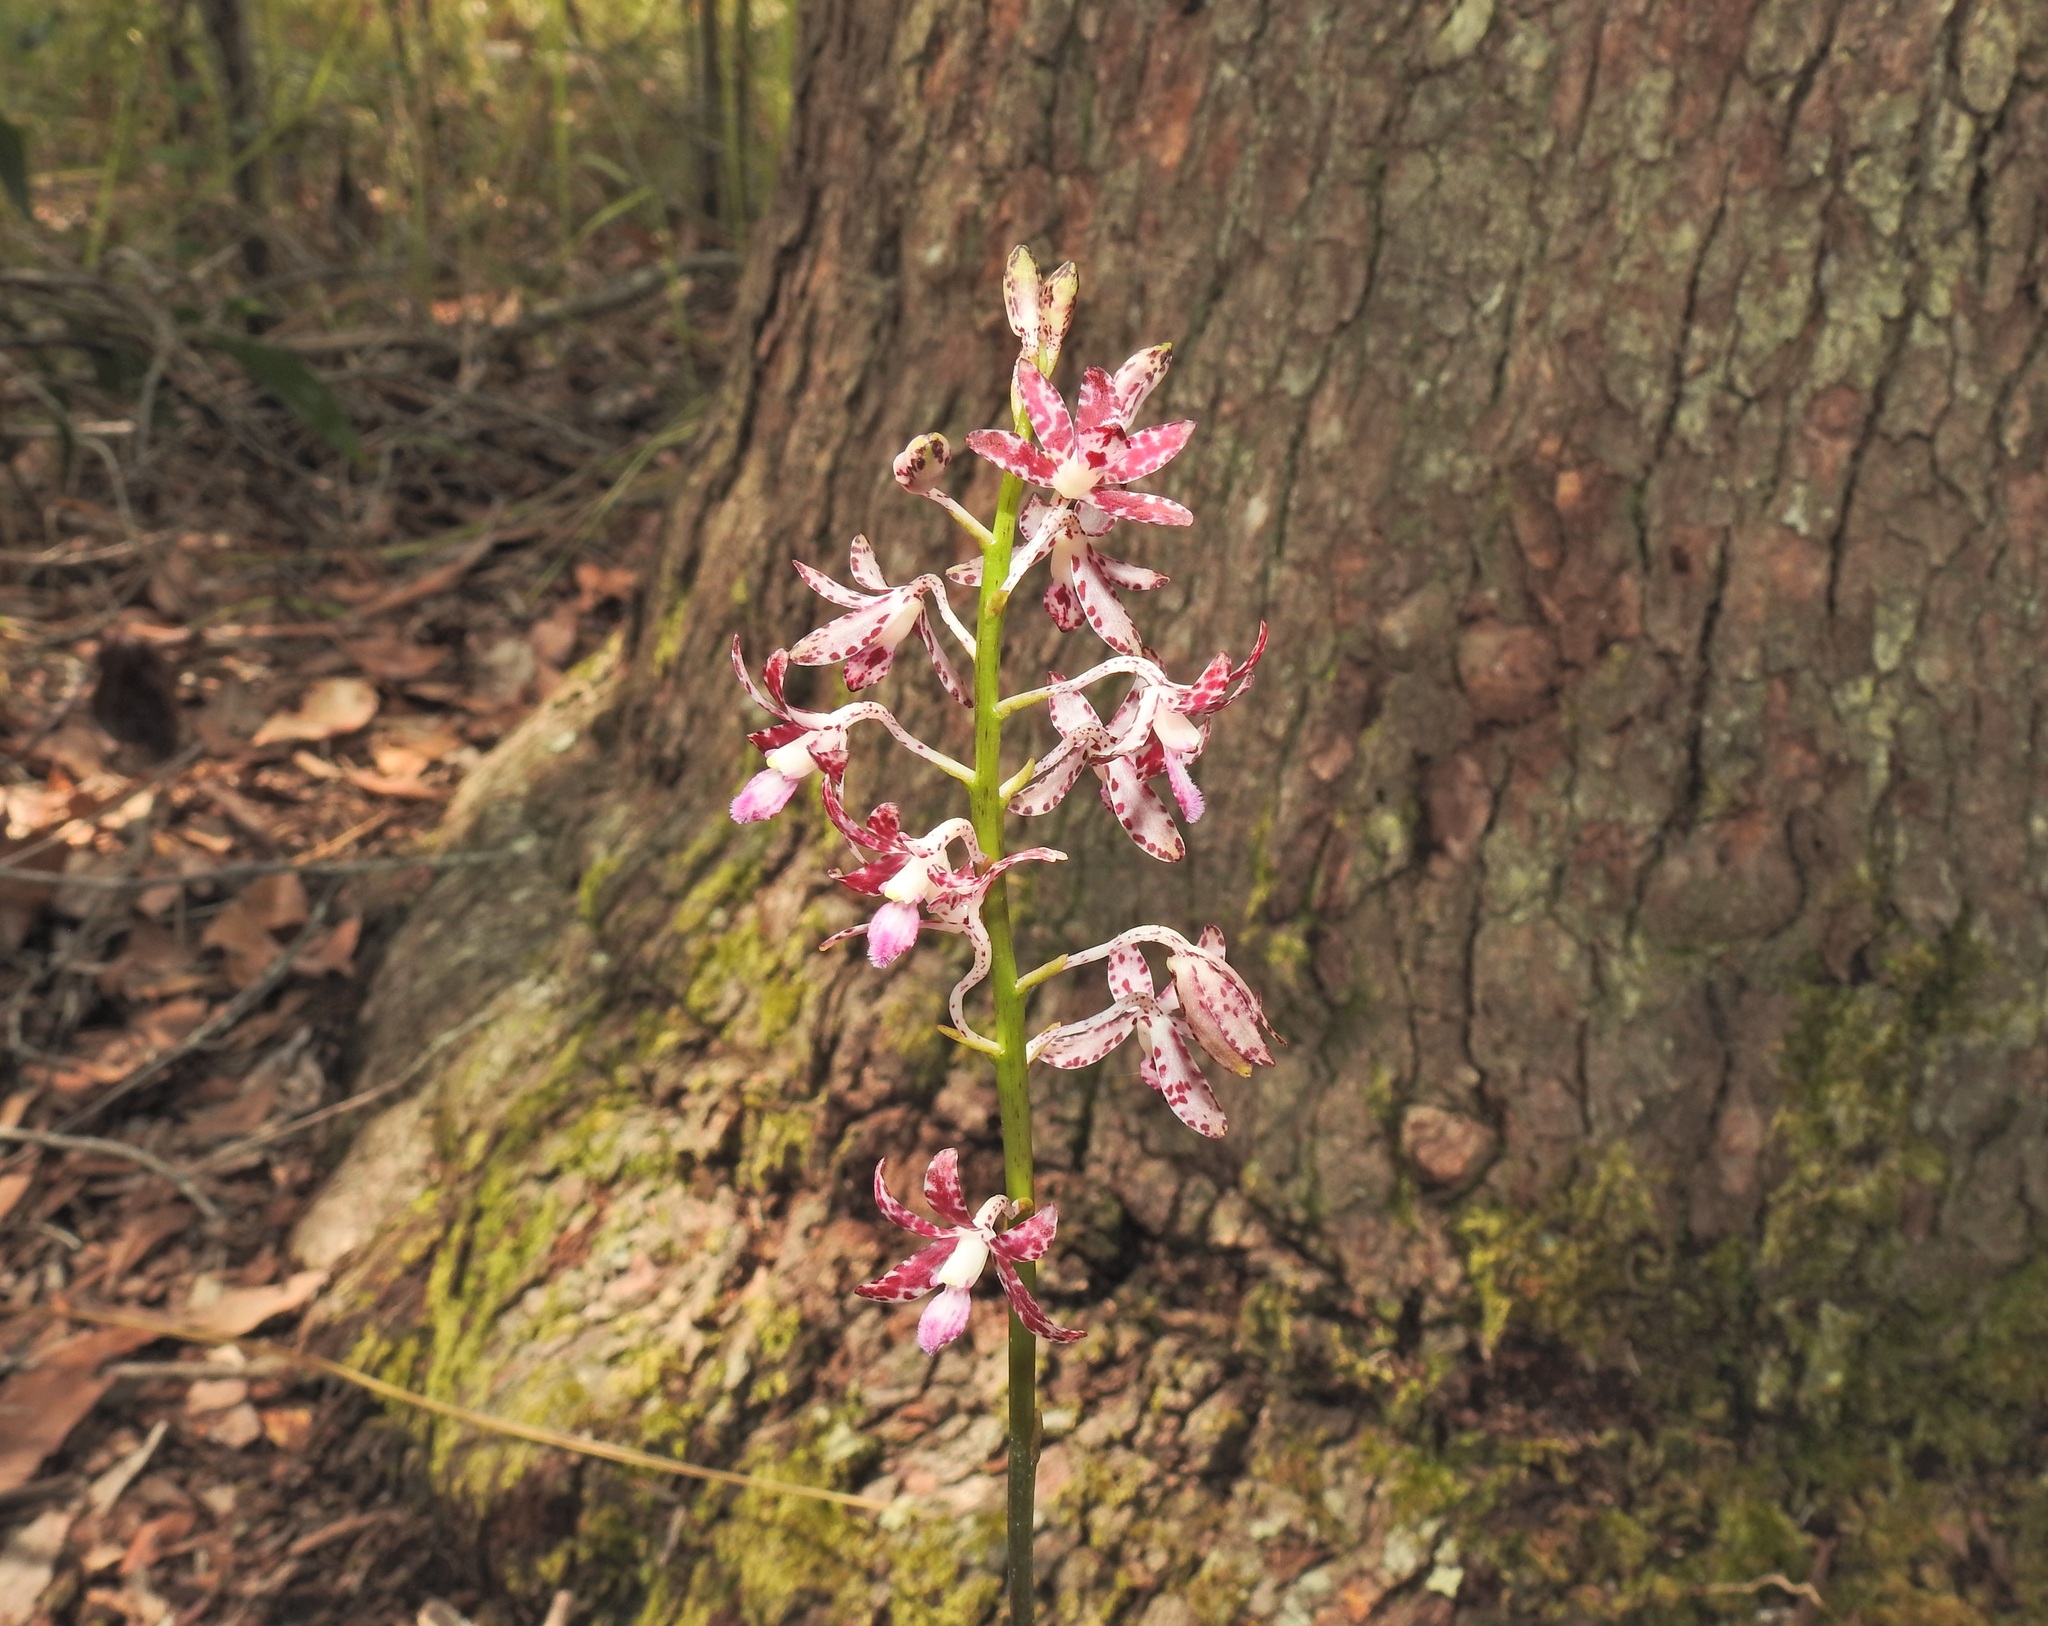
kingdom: Plantae
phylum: Tracheophyta
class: Liliopsida
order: Asparagales
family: Orchidaceae
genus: Dipodium
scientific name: Dipodium variegatum
